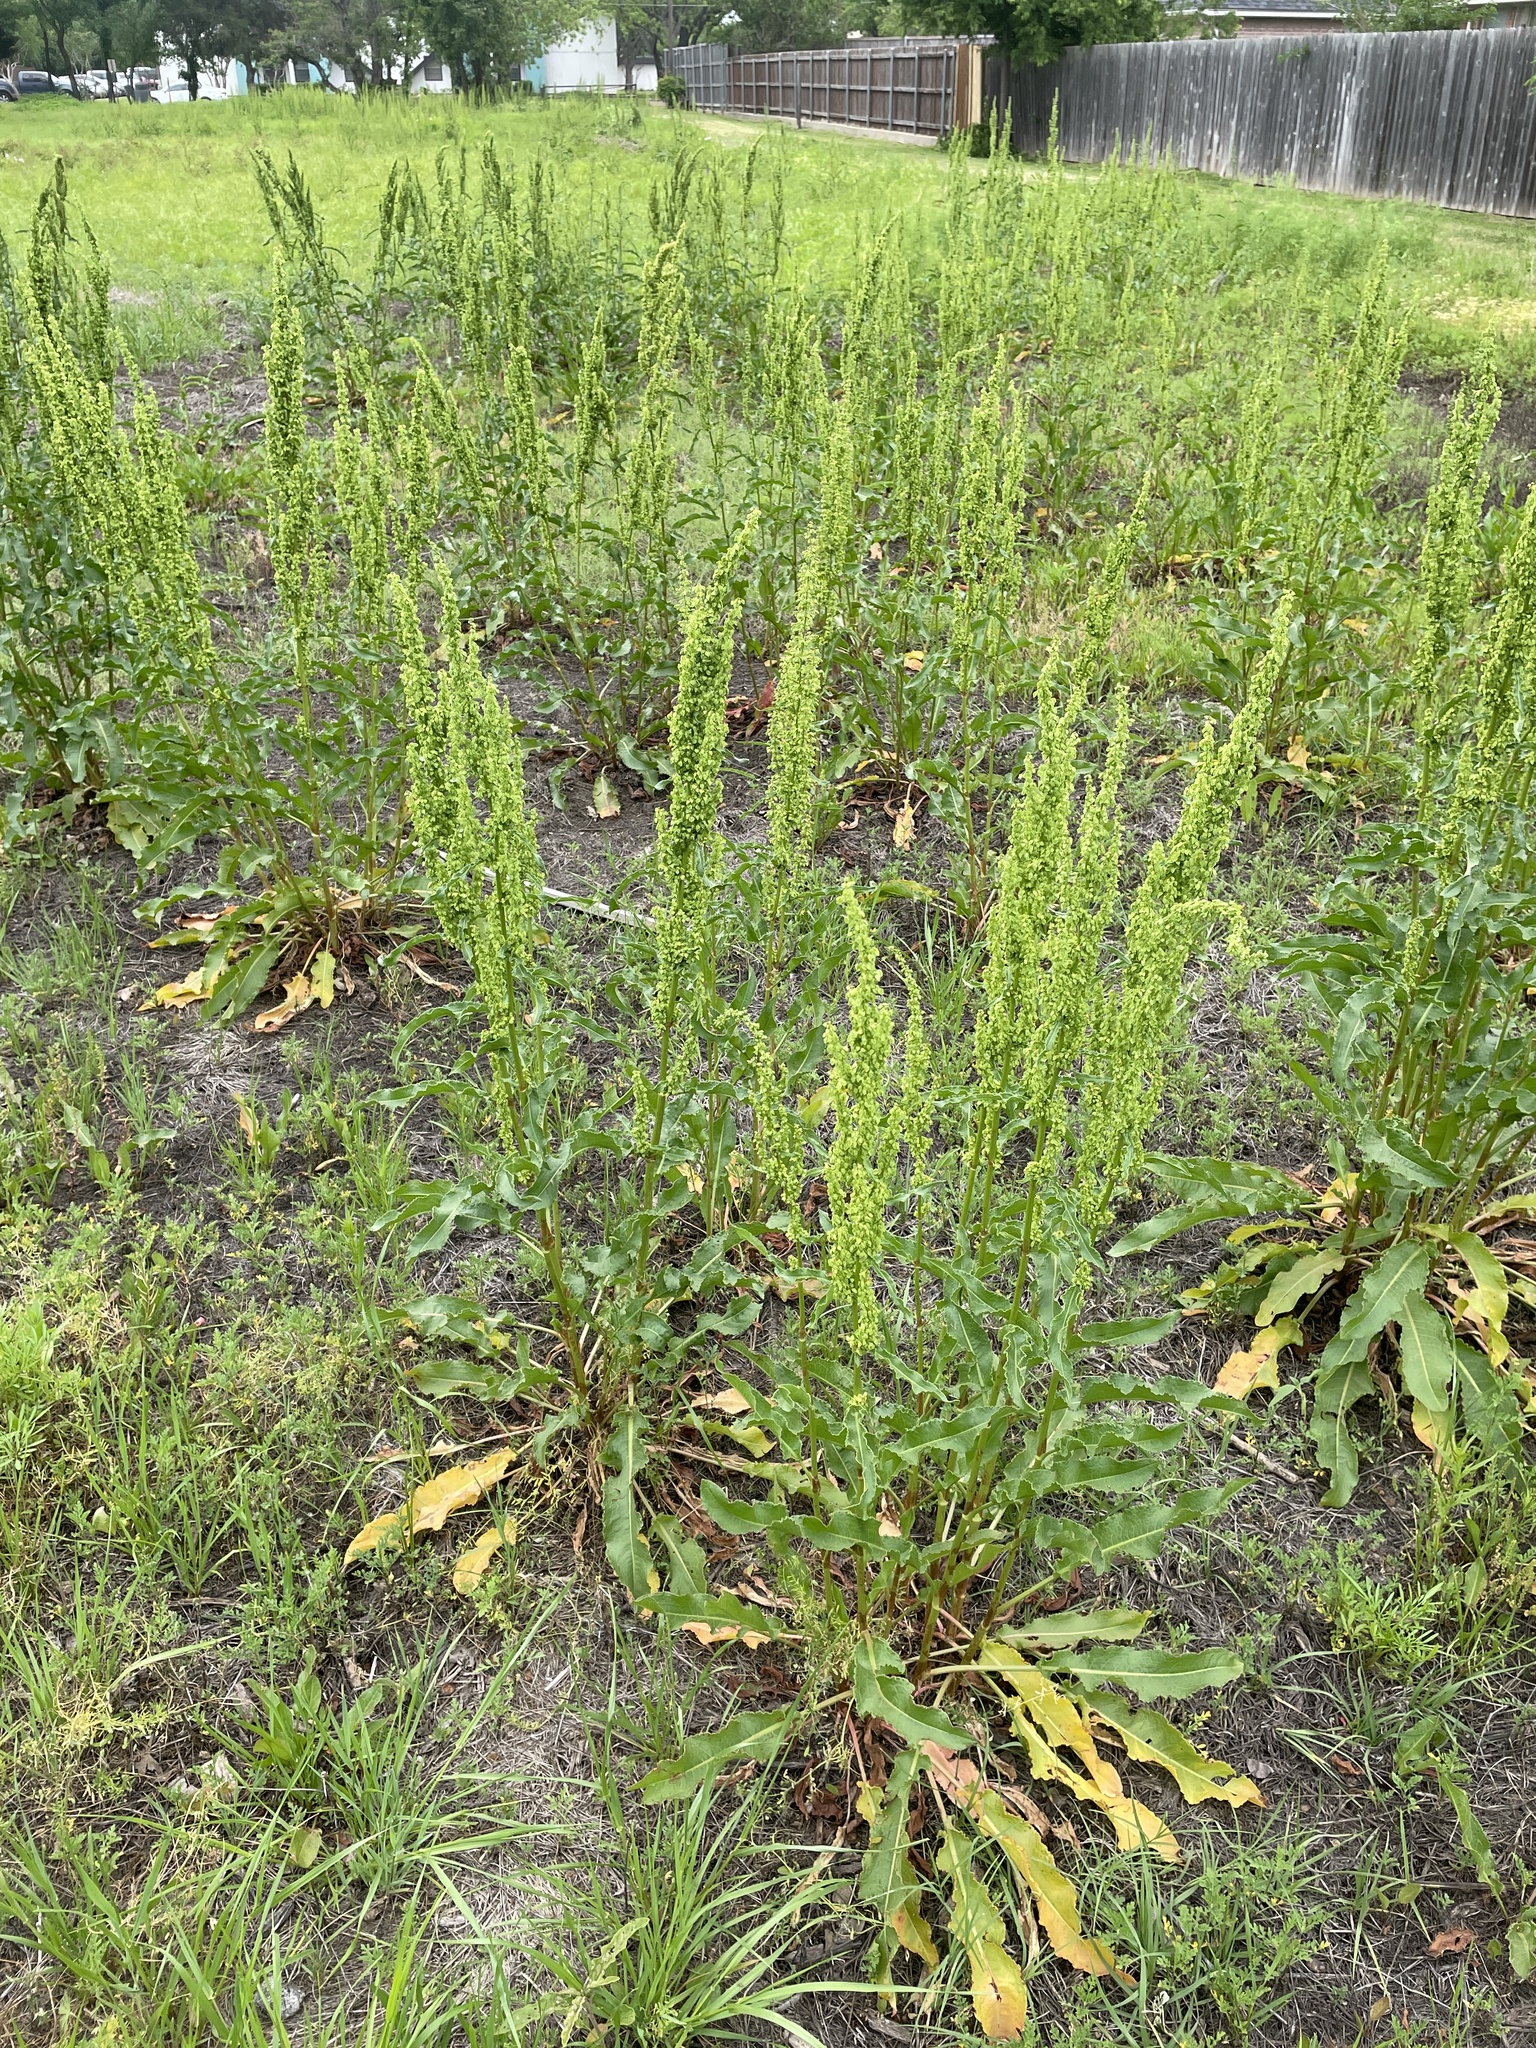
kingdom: Plantae
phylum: Tracheophyta
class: Magnoliopsida
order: Caryophyllales
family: Polygonaceae
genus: Rumex
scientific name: Rumex crispus
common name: Curled dock
